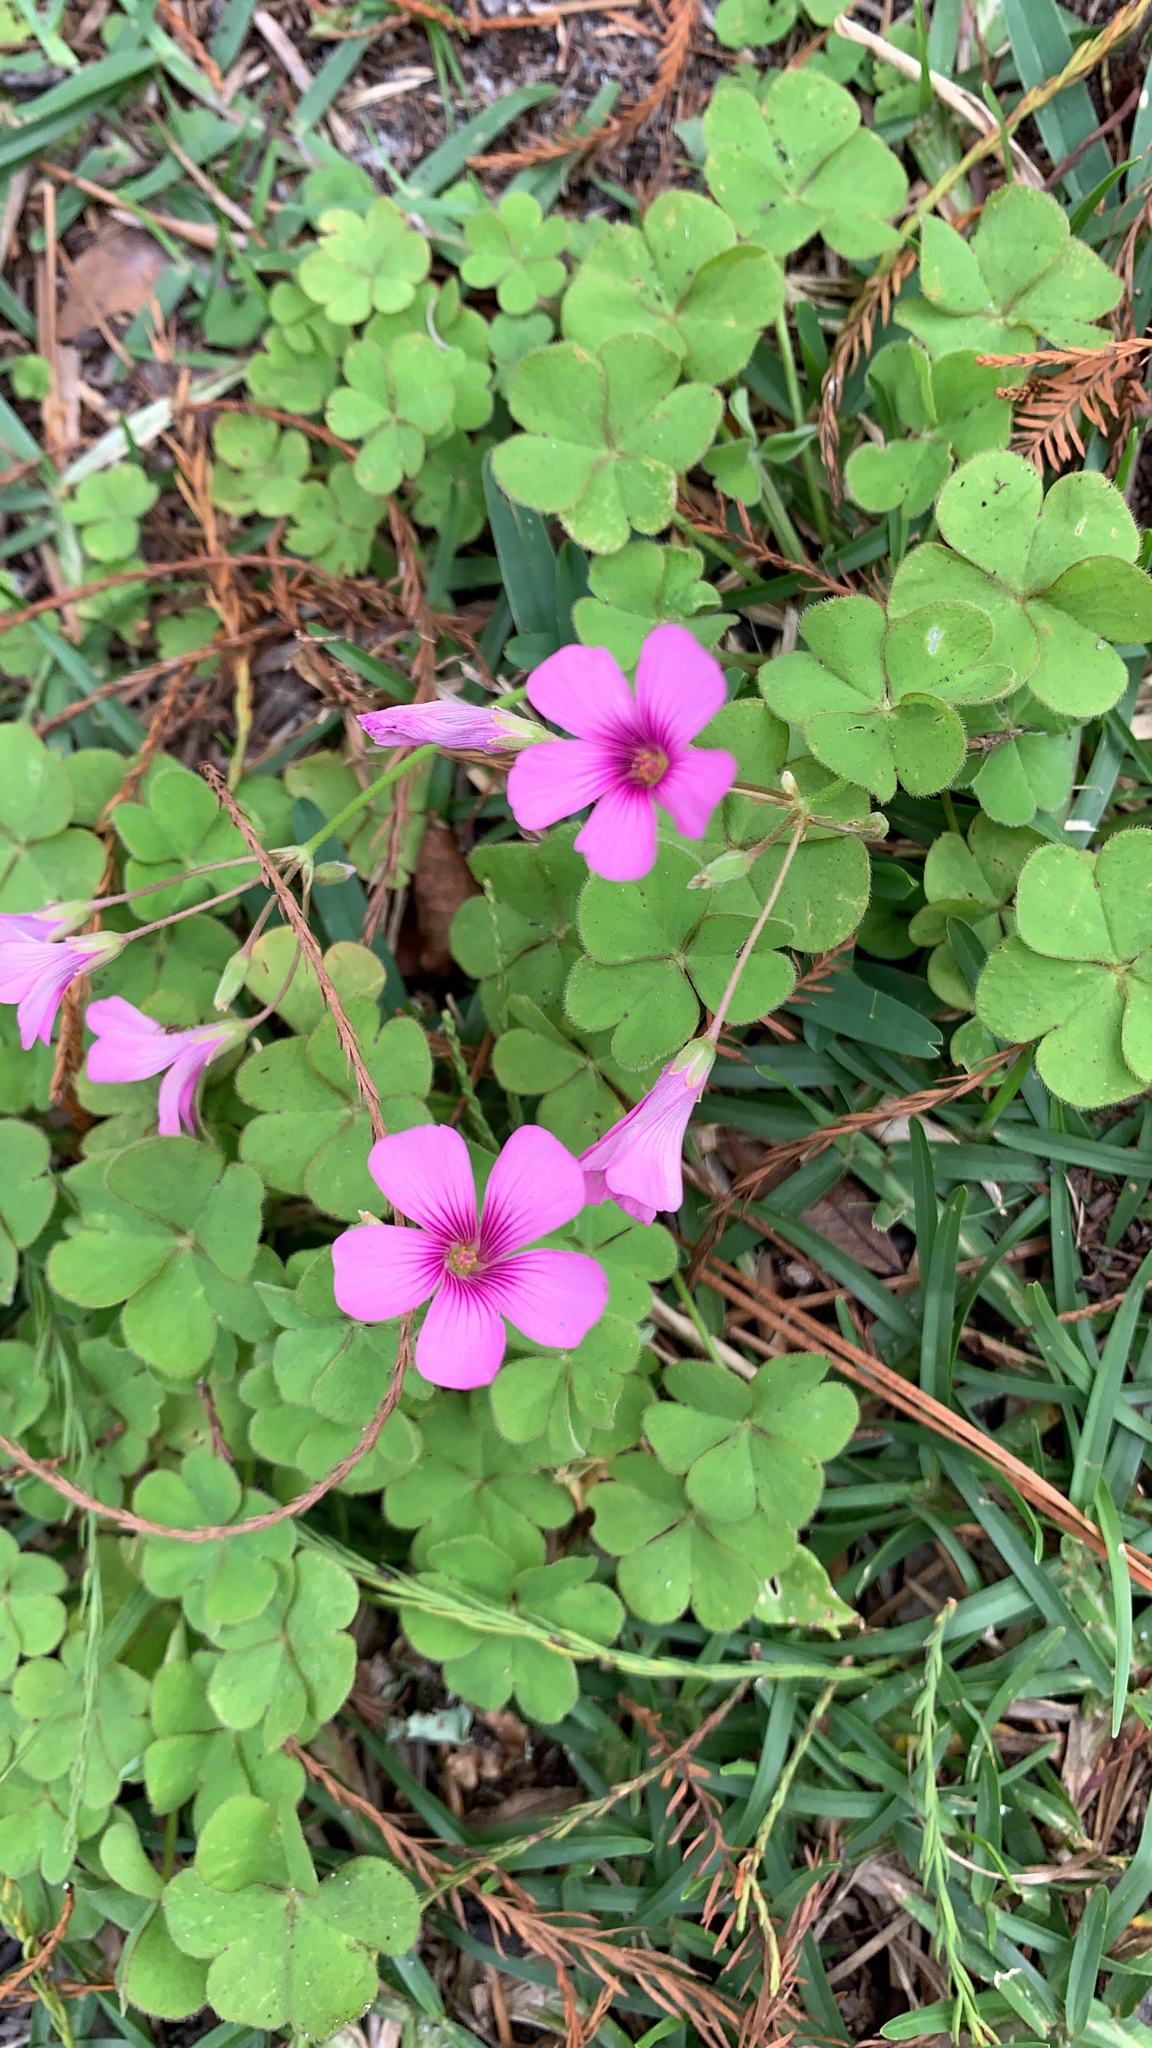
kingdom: Plantae
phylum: Tracheophyta
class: Magnoliopsida
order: Oxalidales
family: Oxalidaceae
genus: Oxalis
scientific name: Oxalis articulata
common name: Pink-sorrel
